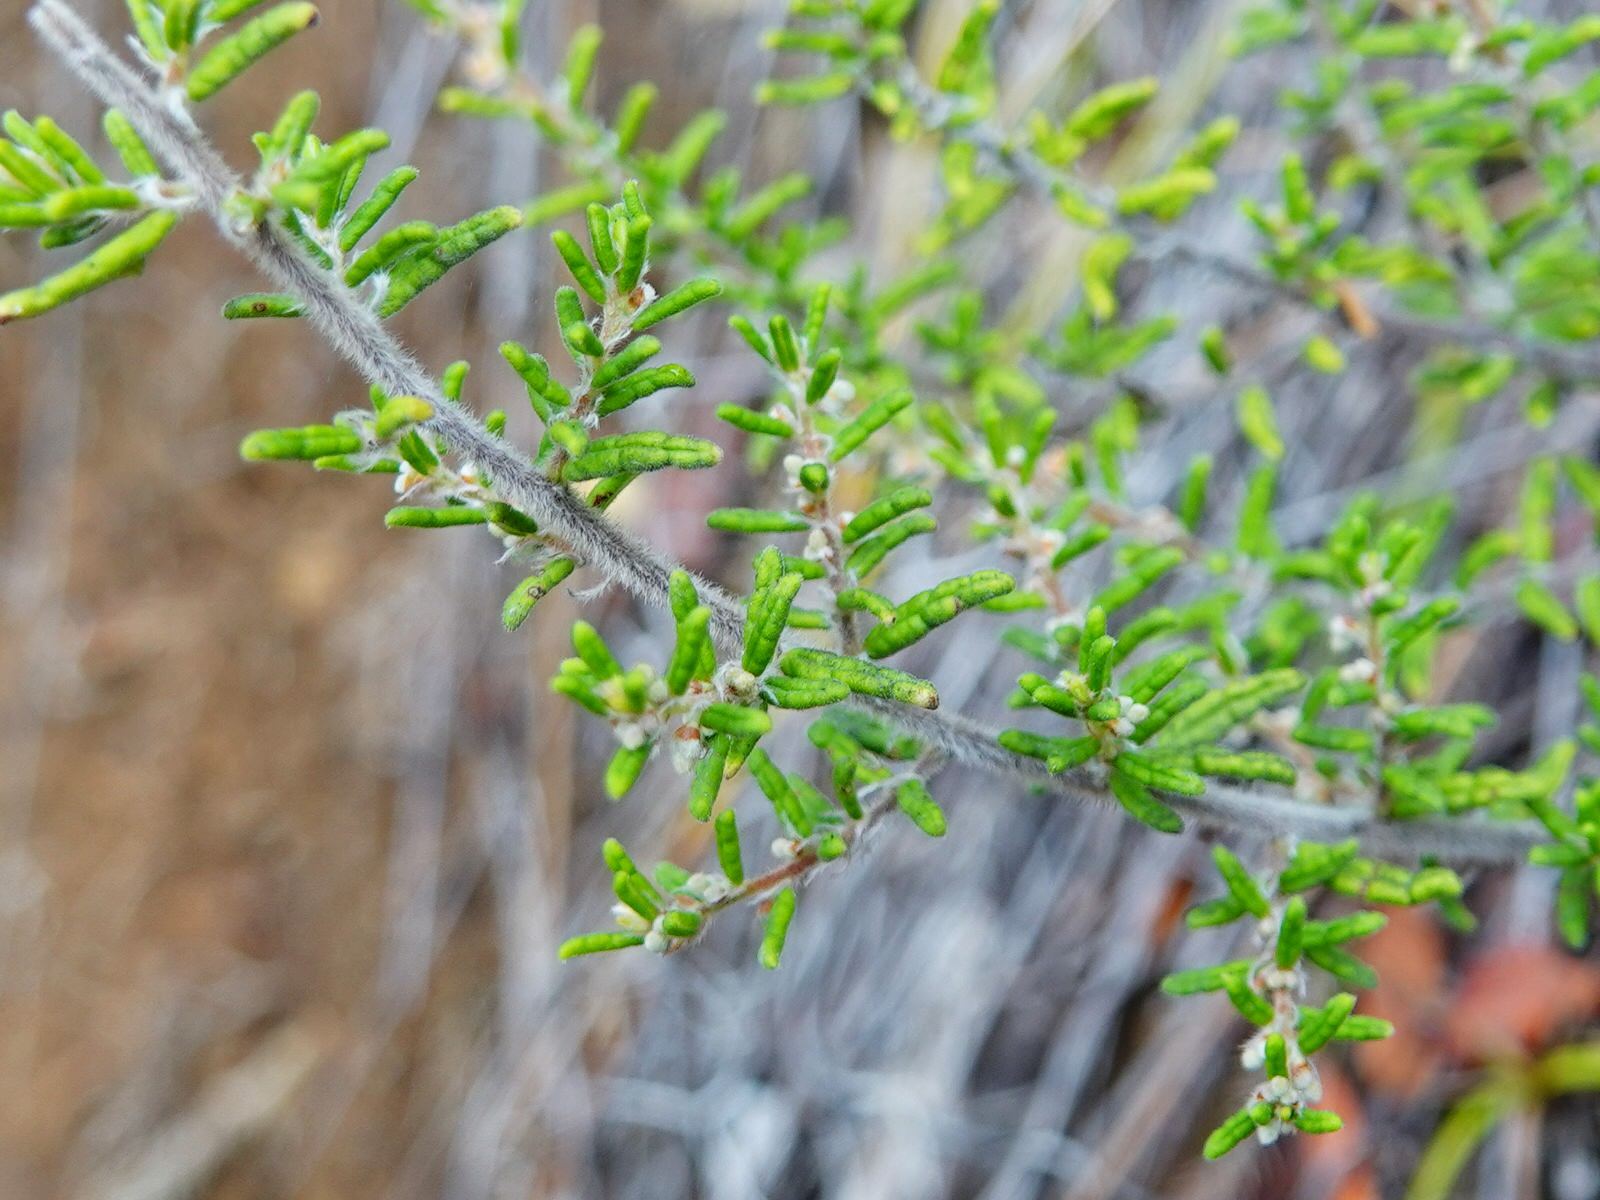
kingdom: Plantae
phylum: Tracheophyta
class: Magnoliopsida
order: Rosales
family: Rhamnaceae
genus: Pomaderris
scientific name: Pomaderris amoena
